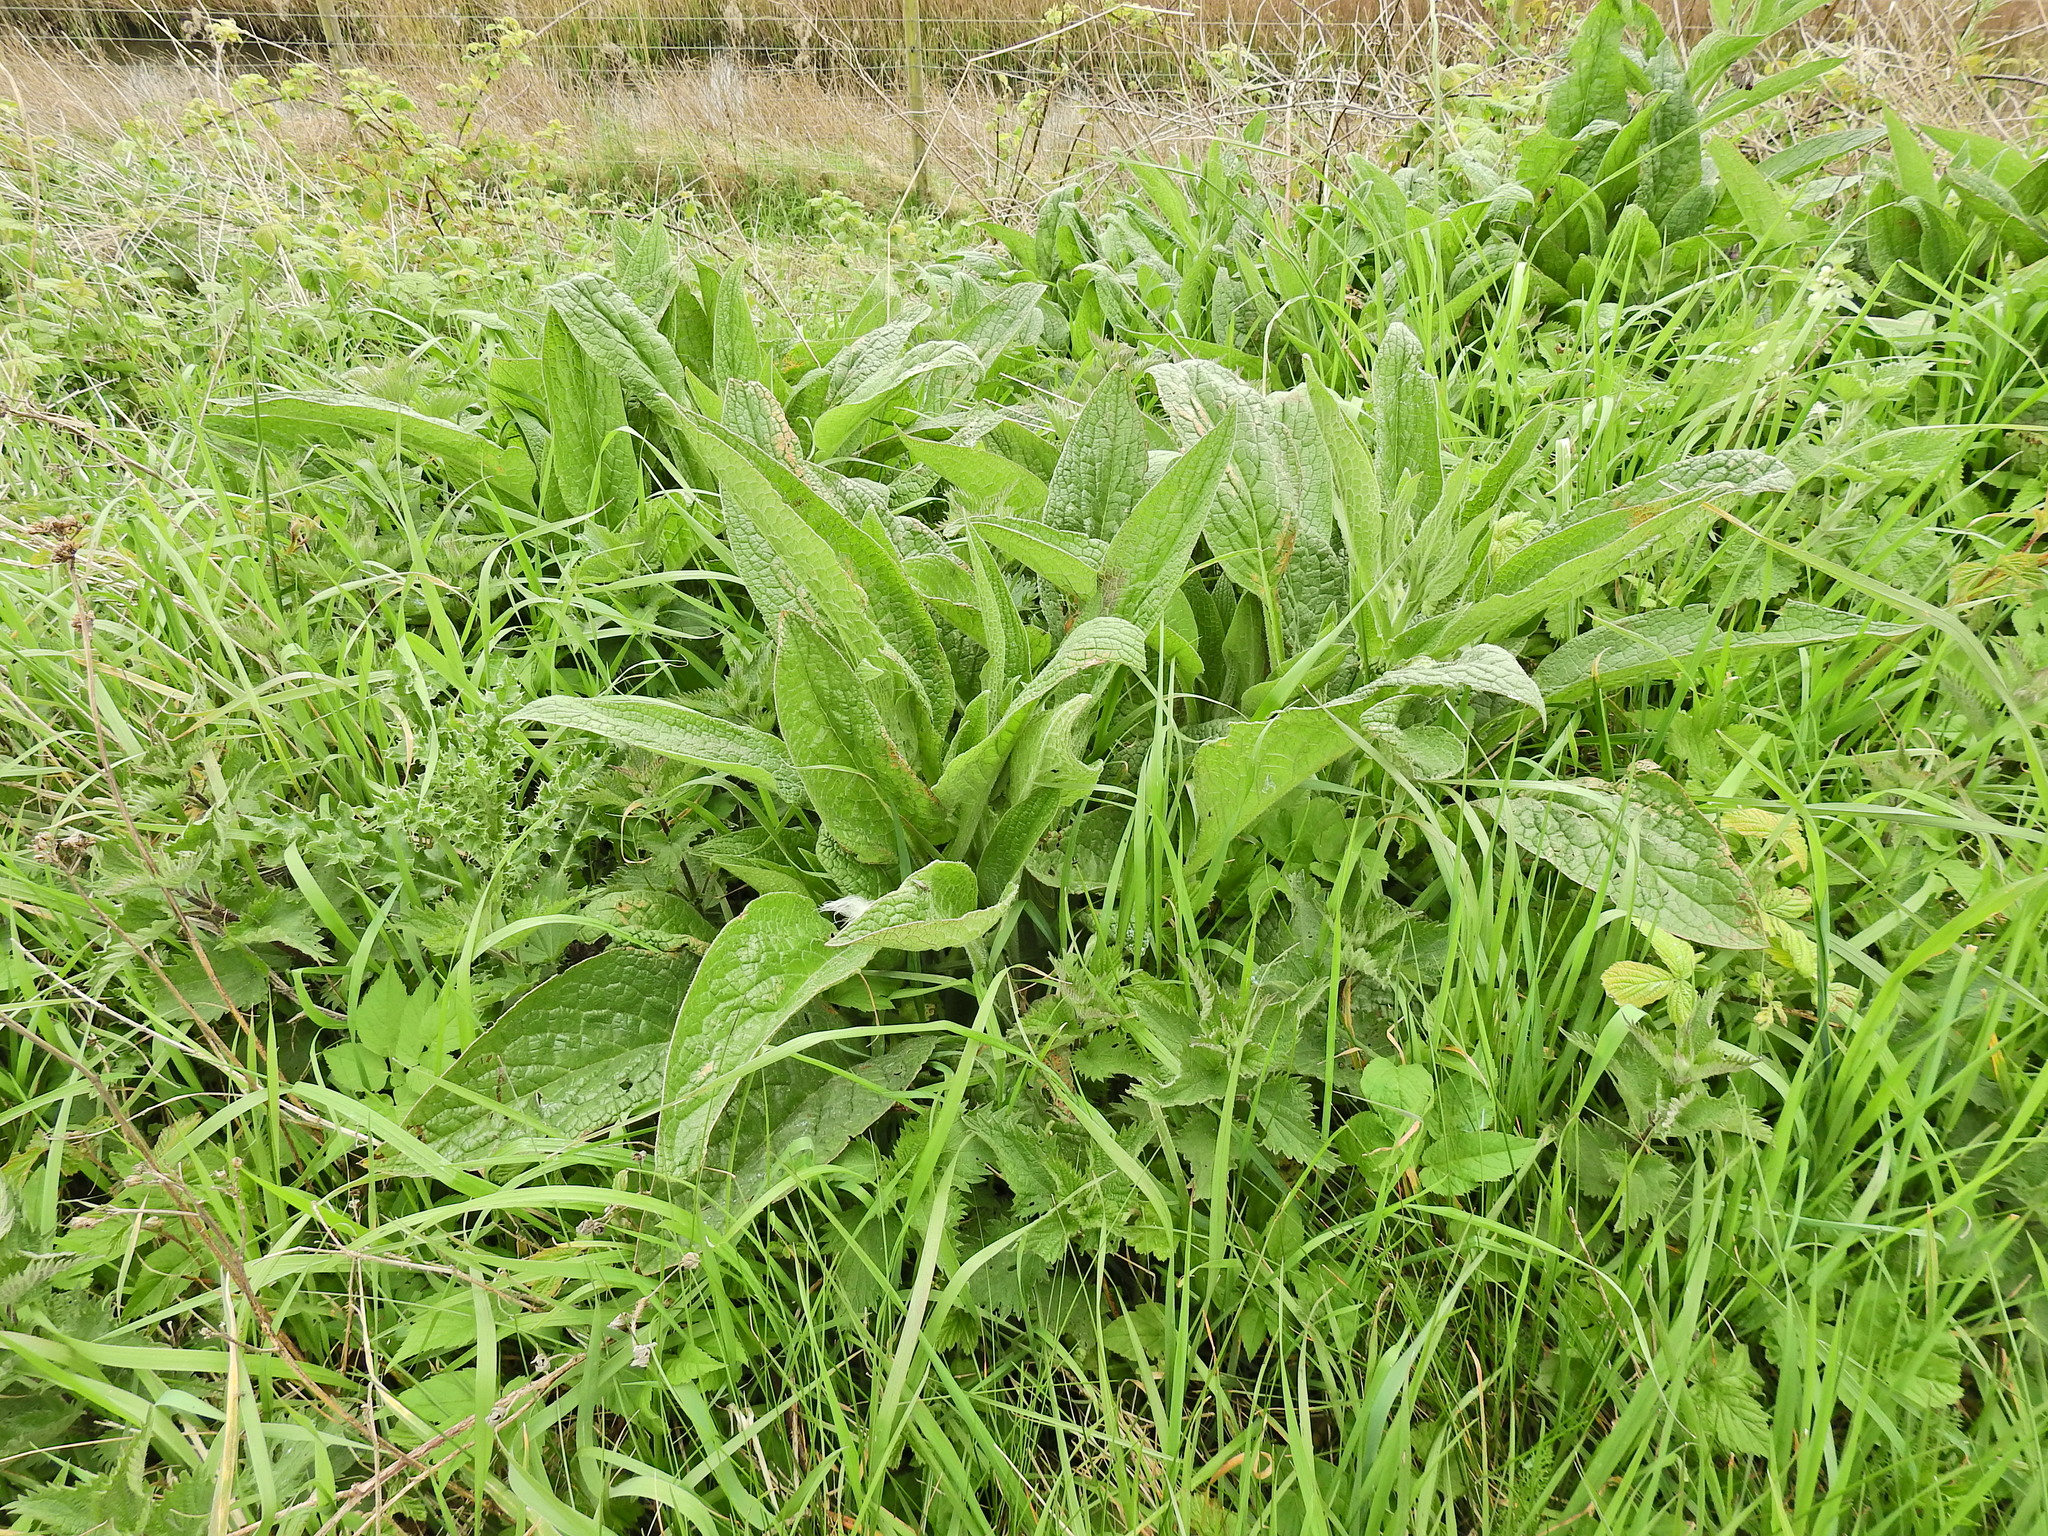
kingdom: Plantae
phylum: Tracheophyta
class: Magnoliopsida
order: Boraginales
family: Boraginaceae
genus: Symphytum
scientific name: Symphytum uplandicum
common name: Russian comfrey
